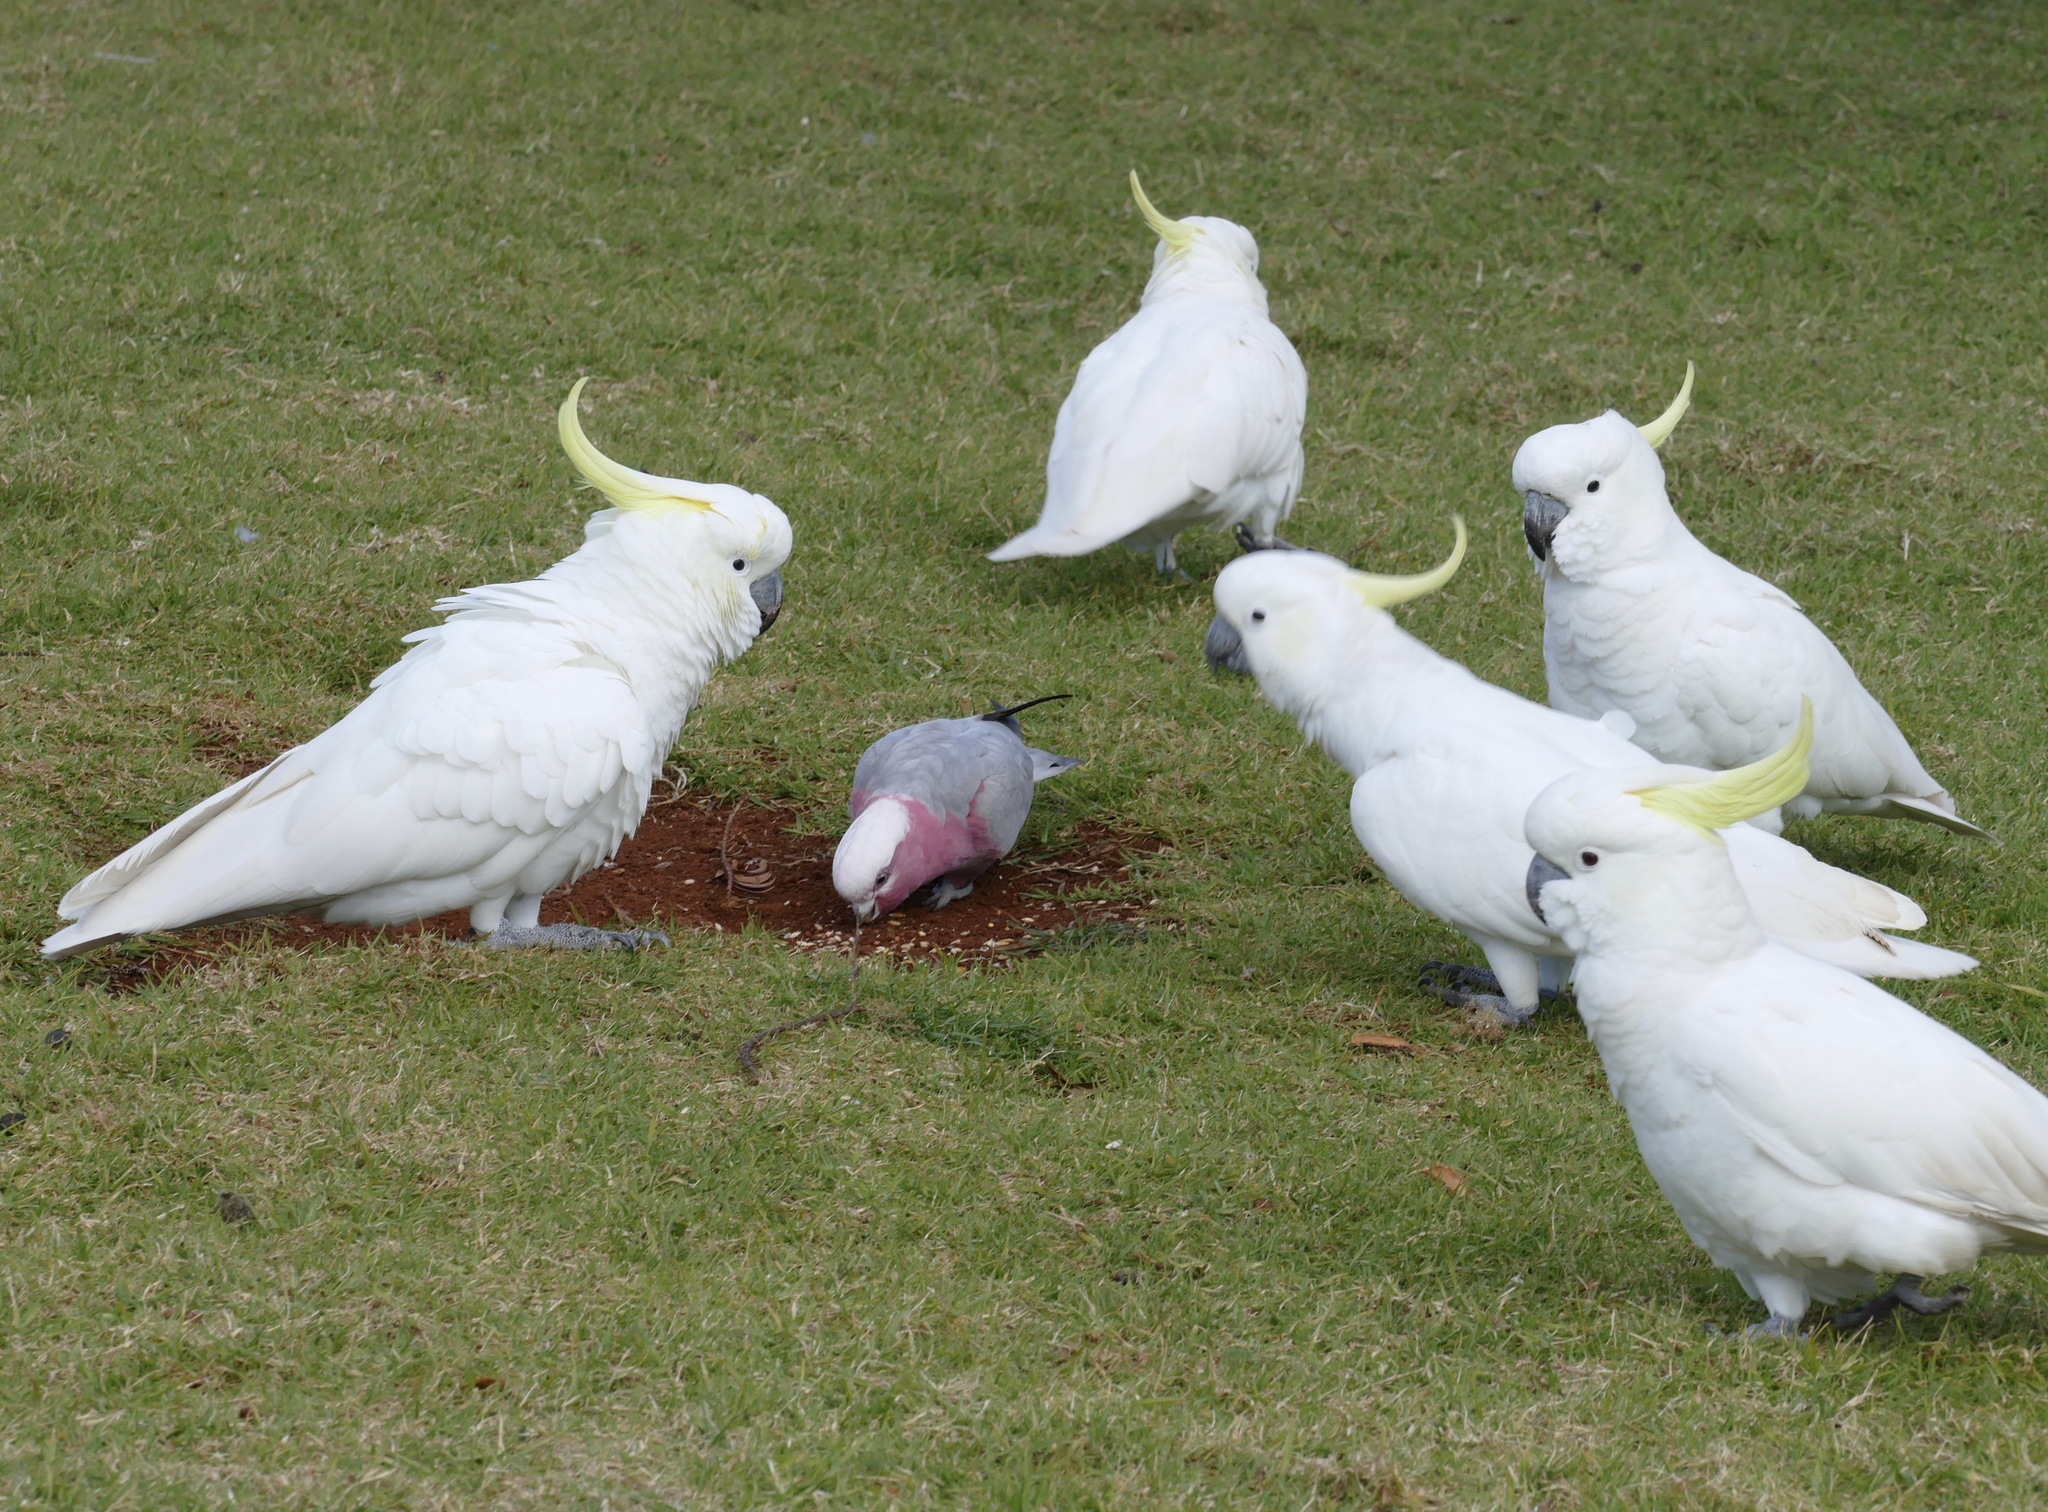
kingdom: Animalia
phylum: Chordata
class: Aves
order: Psittaciformes
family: Psittacidae
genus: Eolophus
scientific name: Eolophus roseicapilla
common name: Galah
